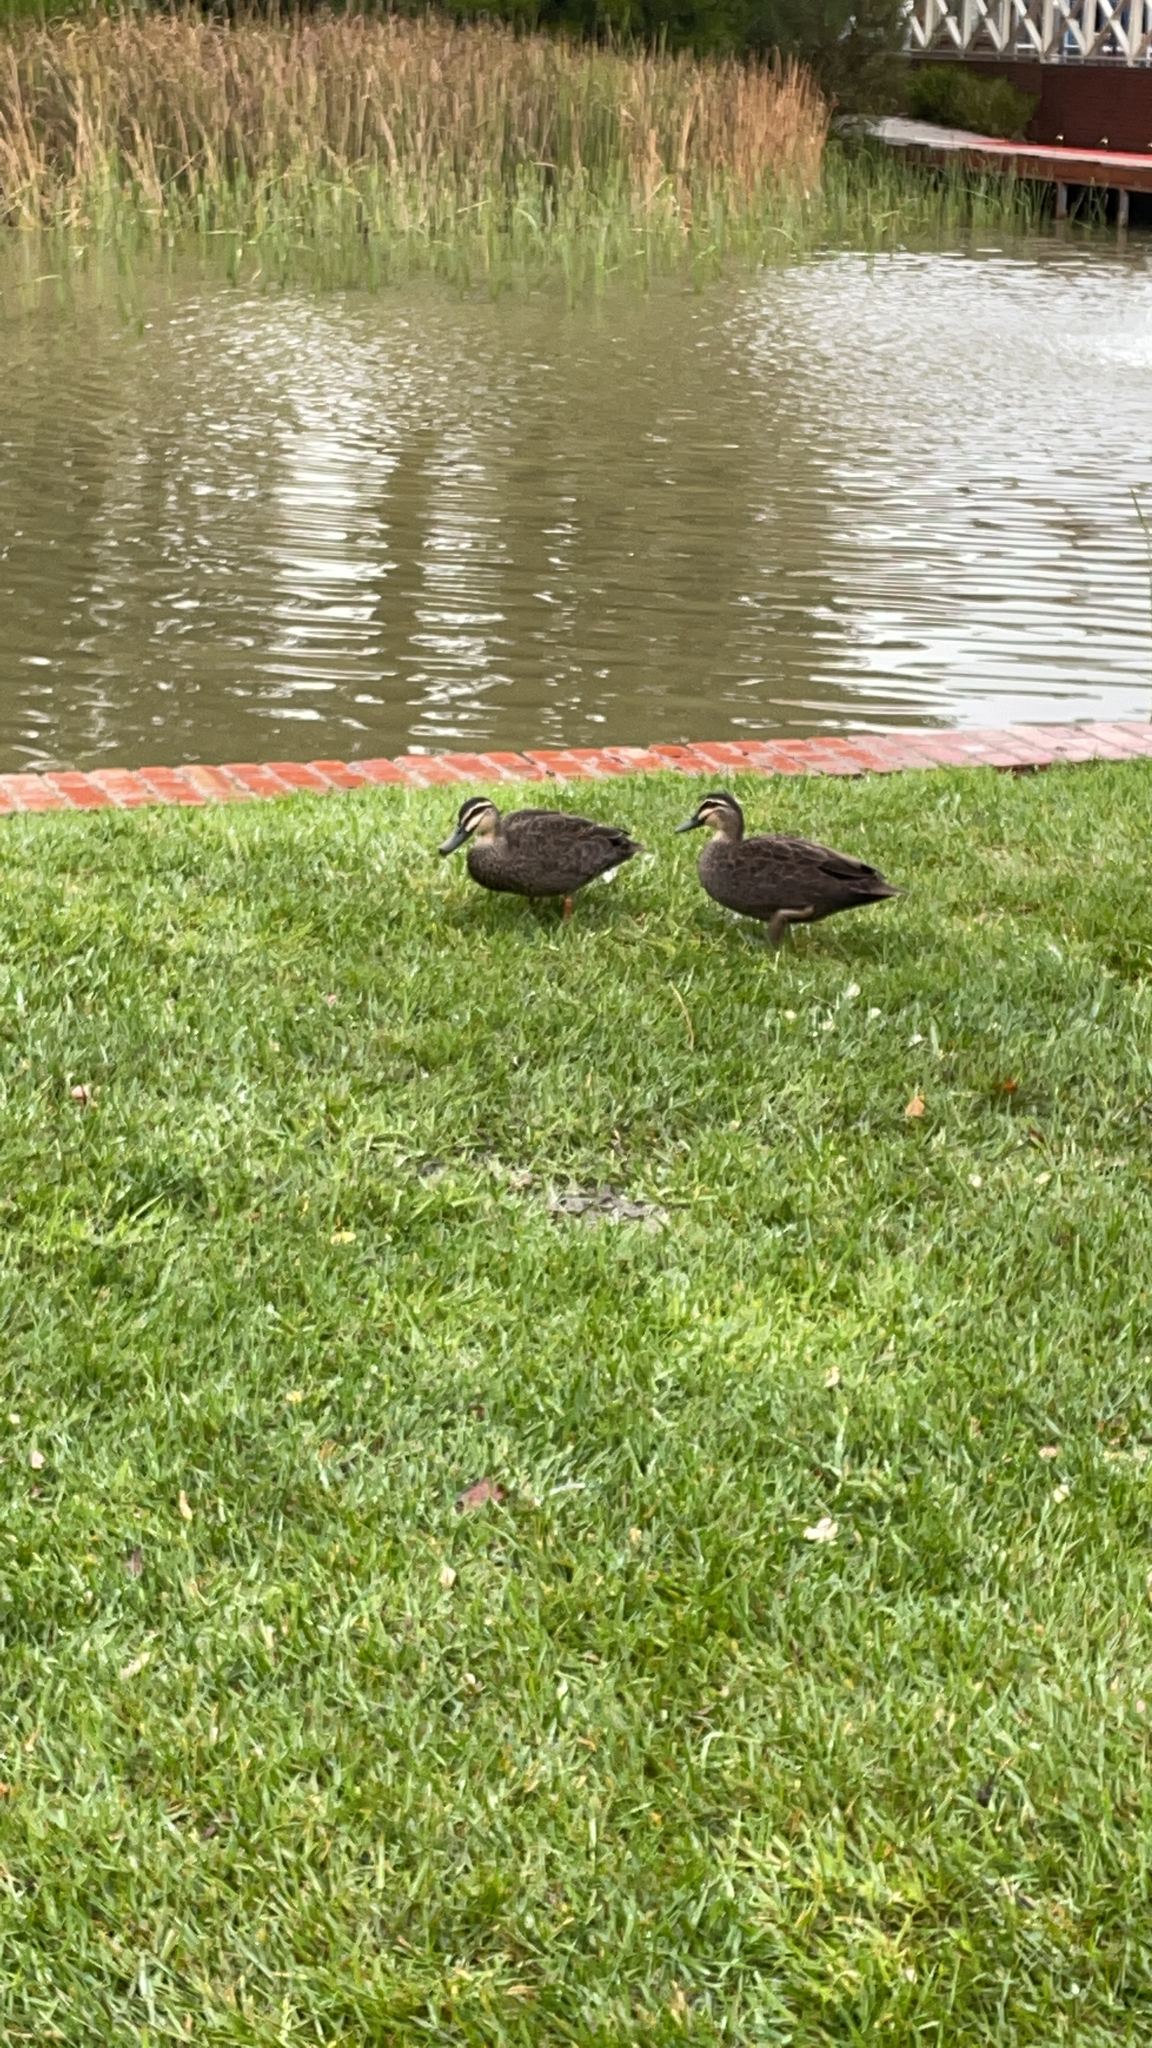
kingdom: Animalia
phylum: Chordata
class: Aves
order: Anseriformes
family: Anatidae
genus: Anas
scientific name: Anas superciliosa
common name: Pacific black duck
